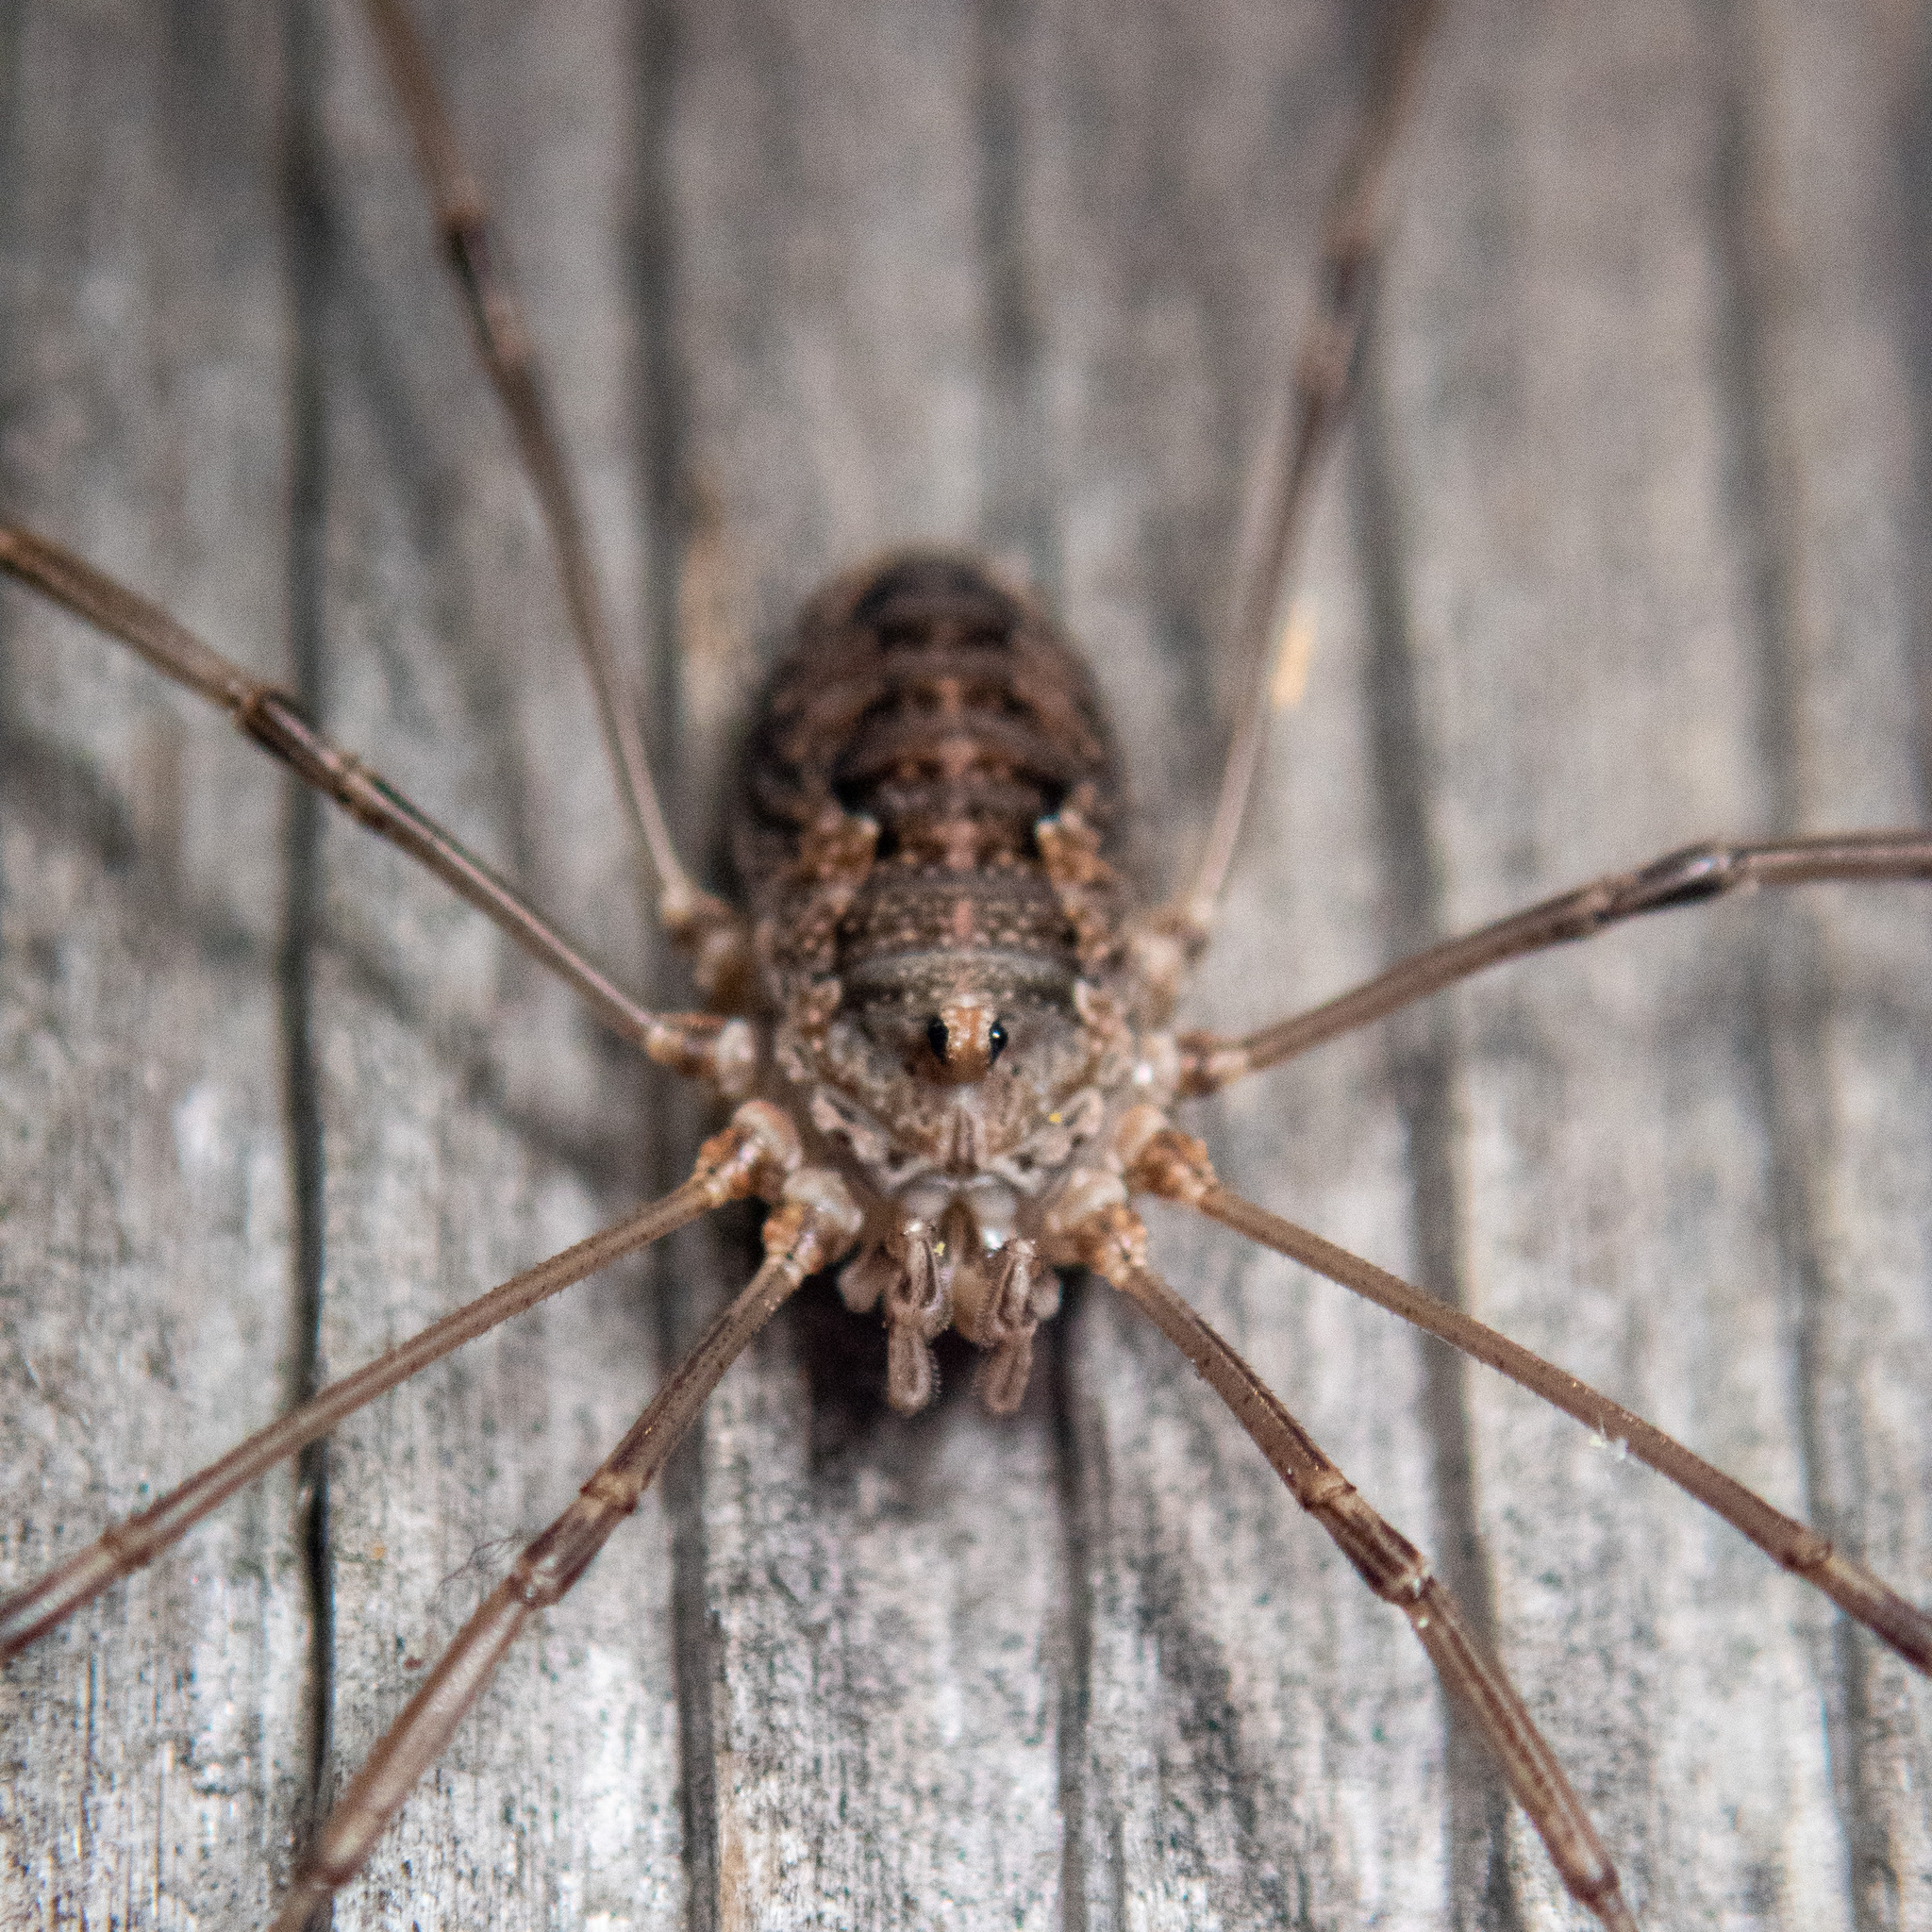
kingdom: Animalia
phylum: Arthropoda
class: Arachnida
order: Opiliones
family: Phalangiidae
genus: Phalangium
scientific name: Phalangium opilio
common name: Daddy longleg
